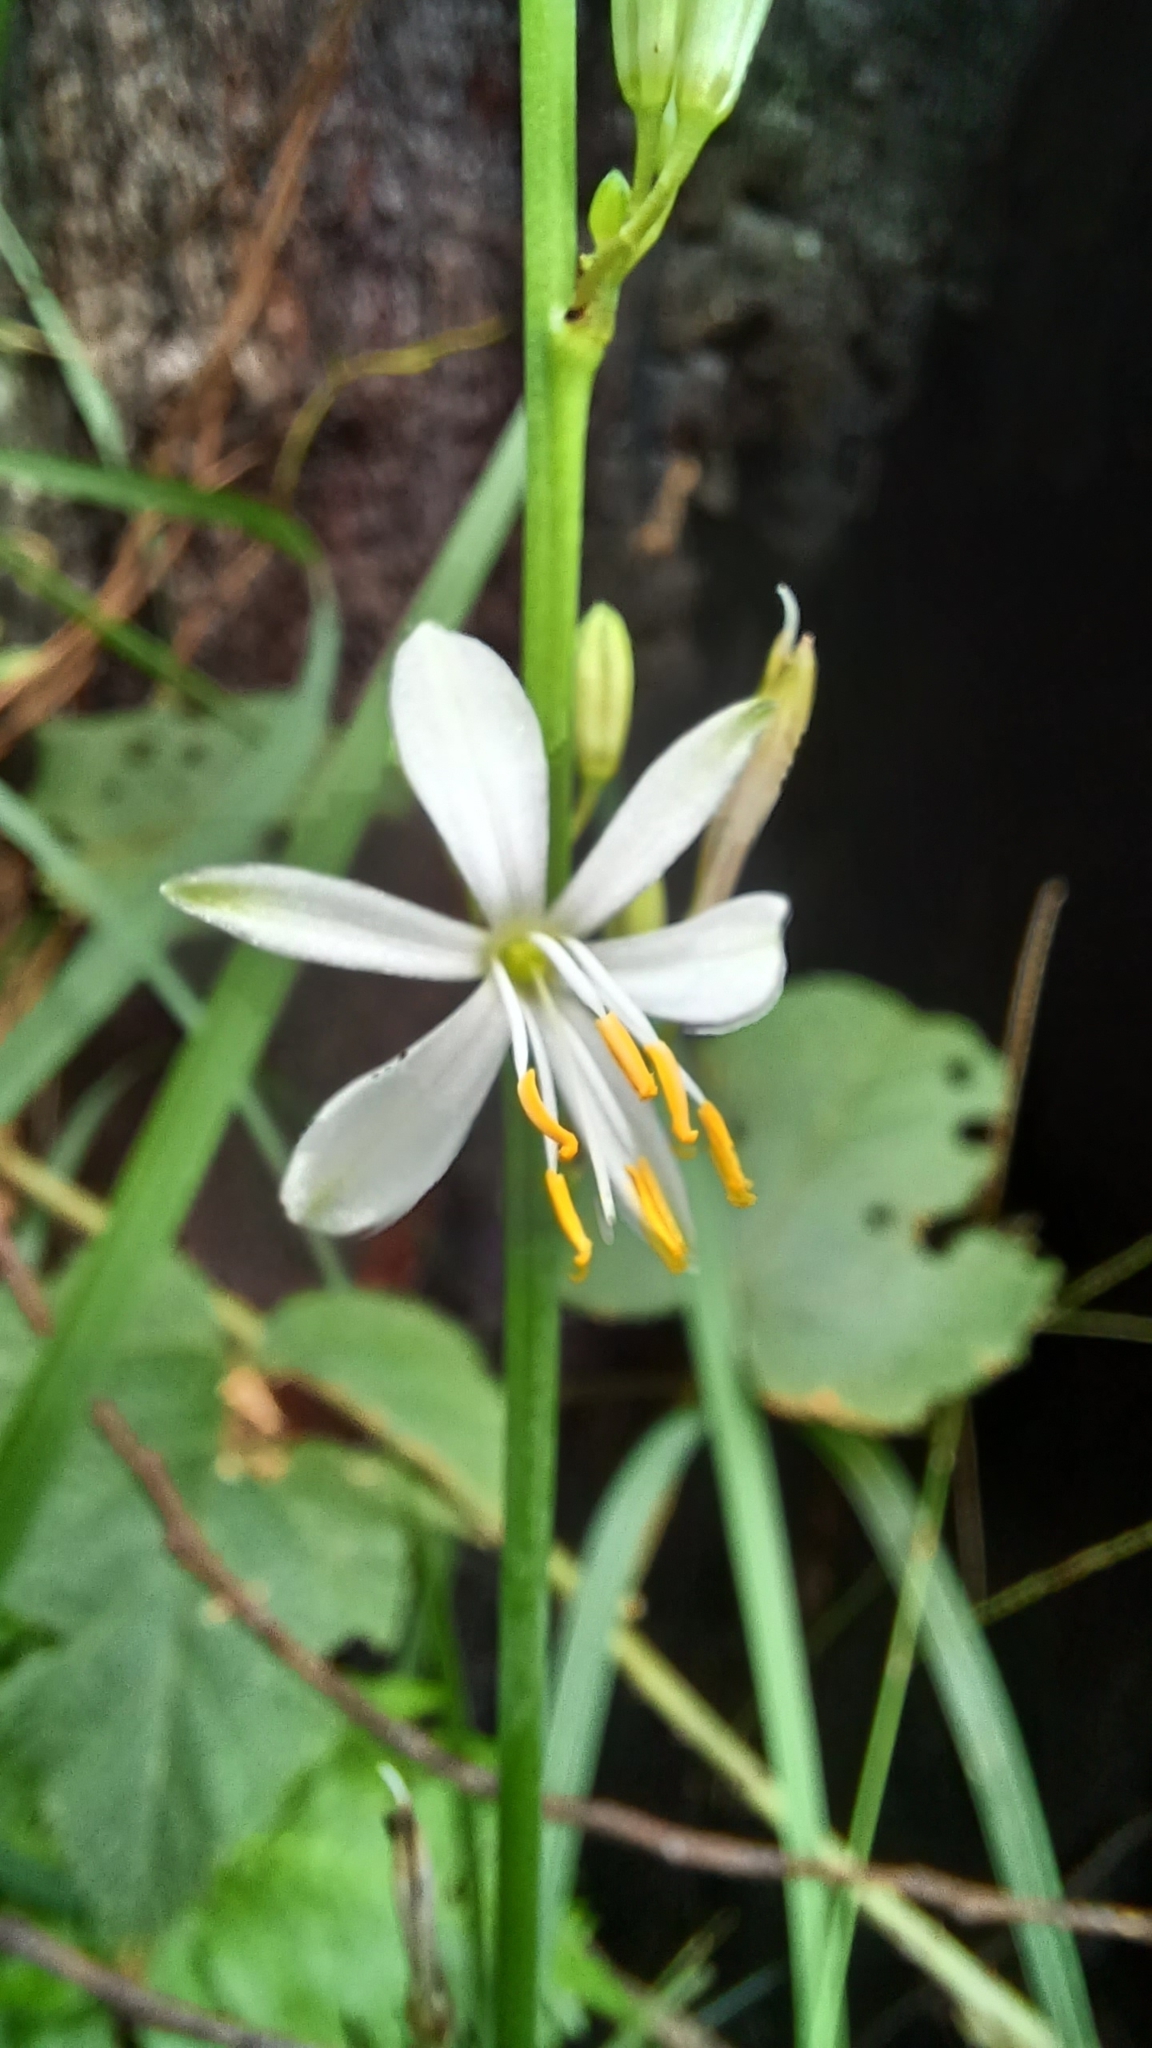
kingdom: Plantae
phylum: Tracheophyta
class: Liliopsida
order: Asparagales
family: Asparagaceae
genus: Chlorophytum
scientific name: Chlorophytum comosum
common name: Spider plant
